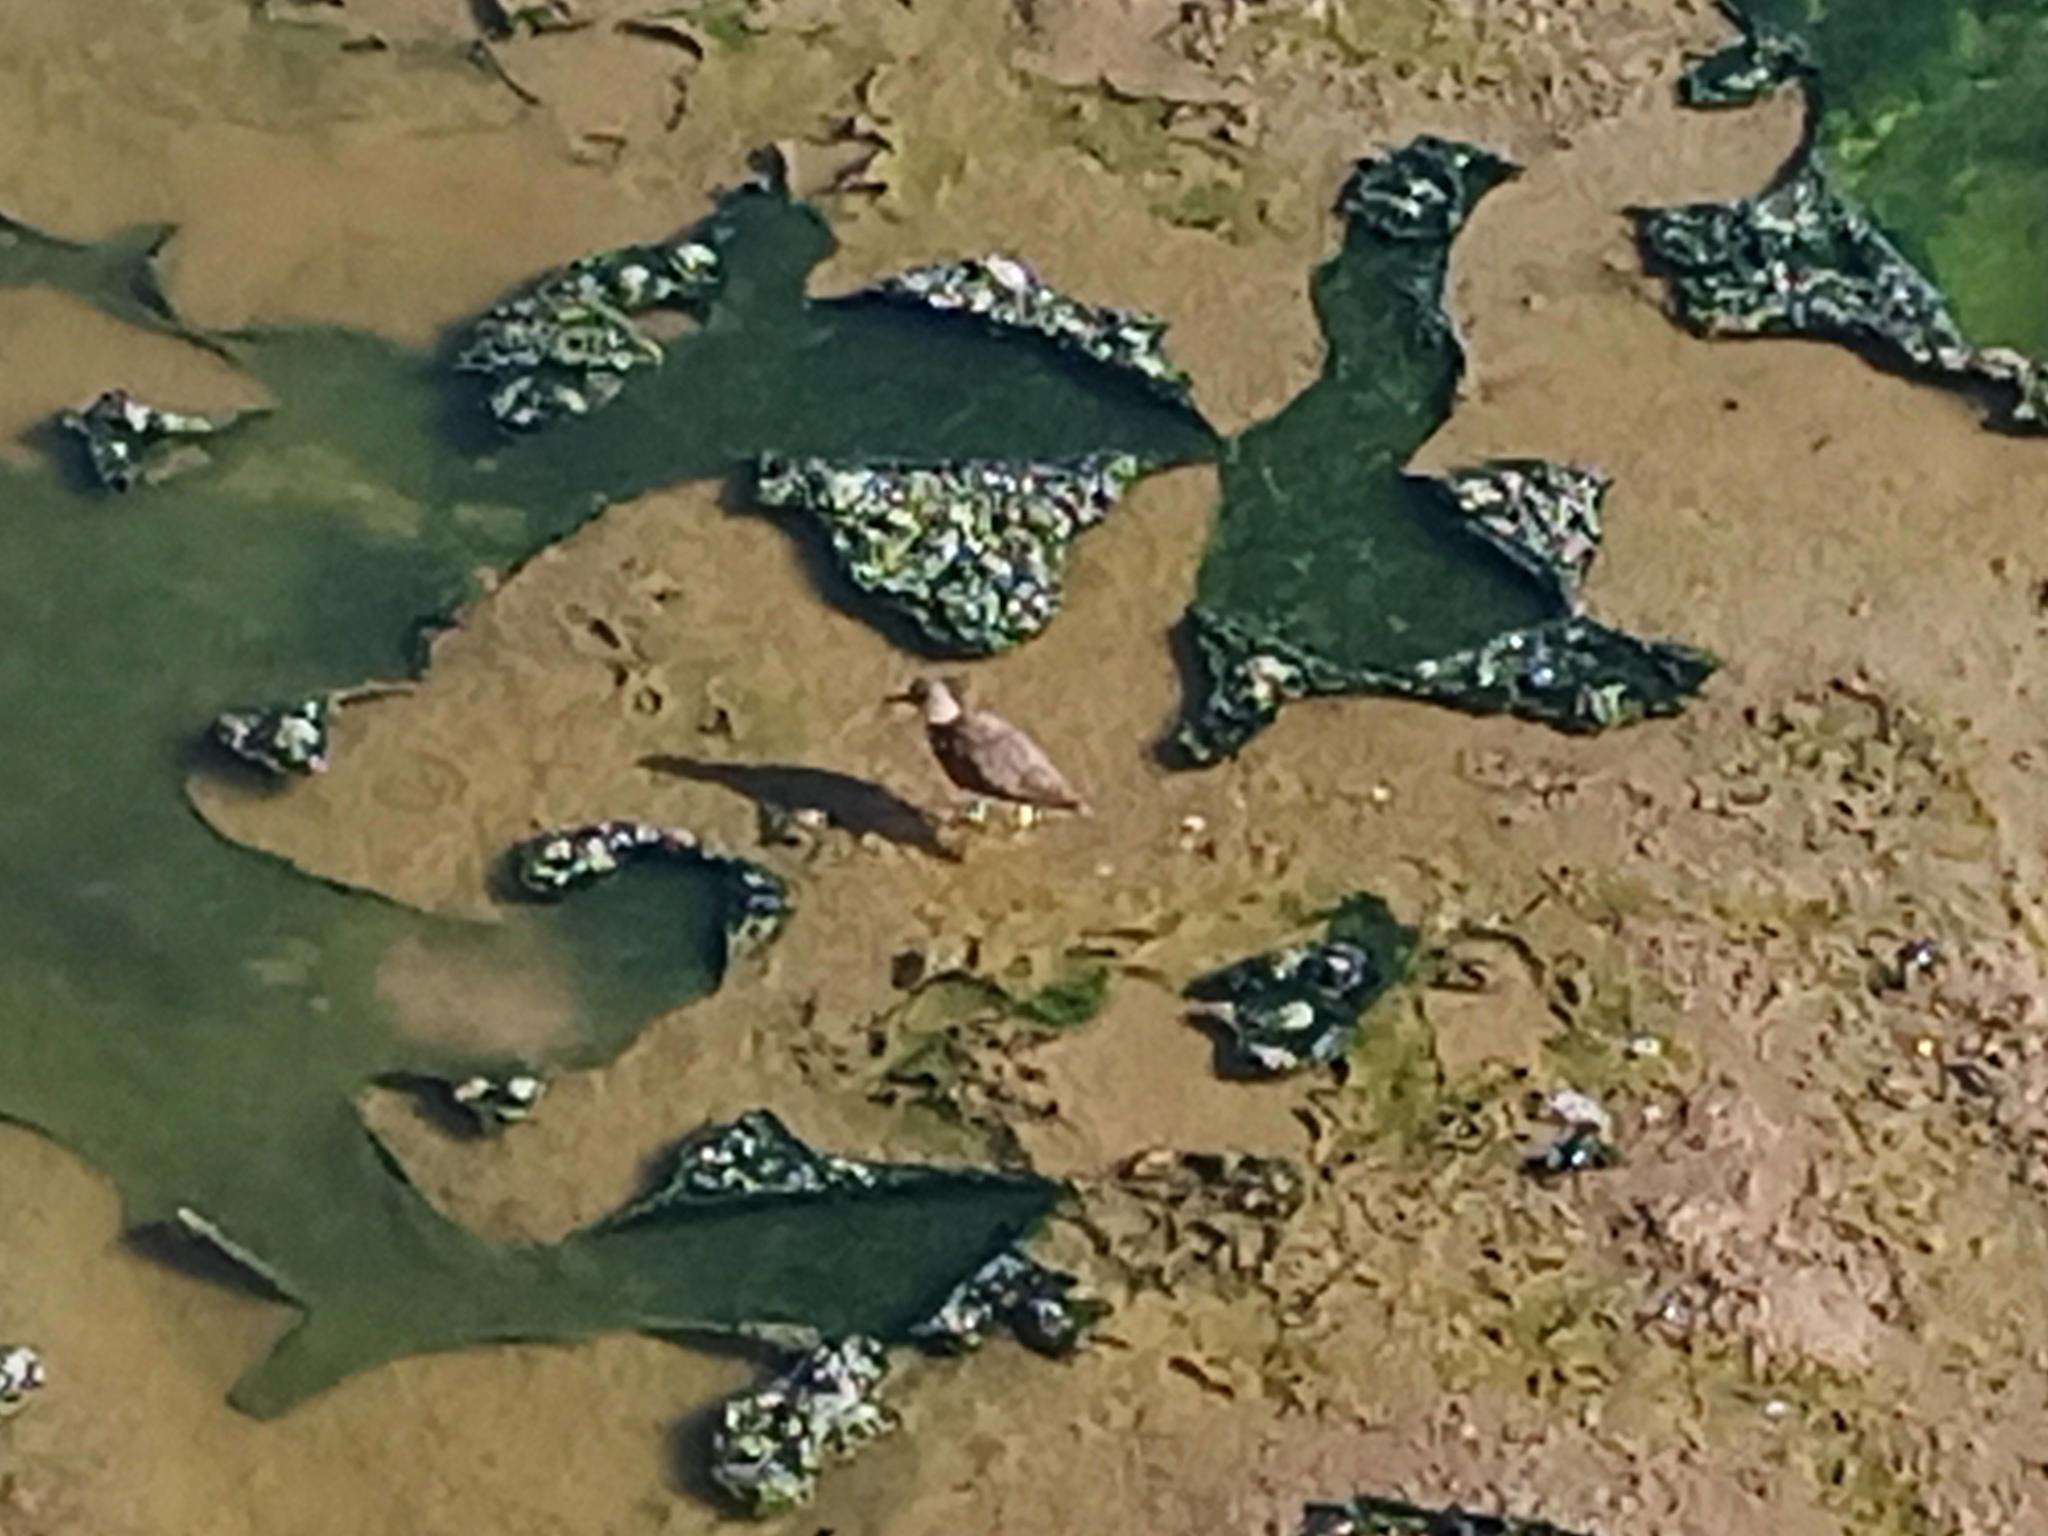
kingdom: Animalia
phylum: Chordata
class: Aves
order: Charadriiformes
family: Scolopacidae
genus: Actitis
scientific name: Actitis hypoleucos
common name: Common sandpiper
